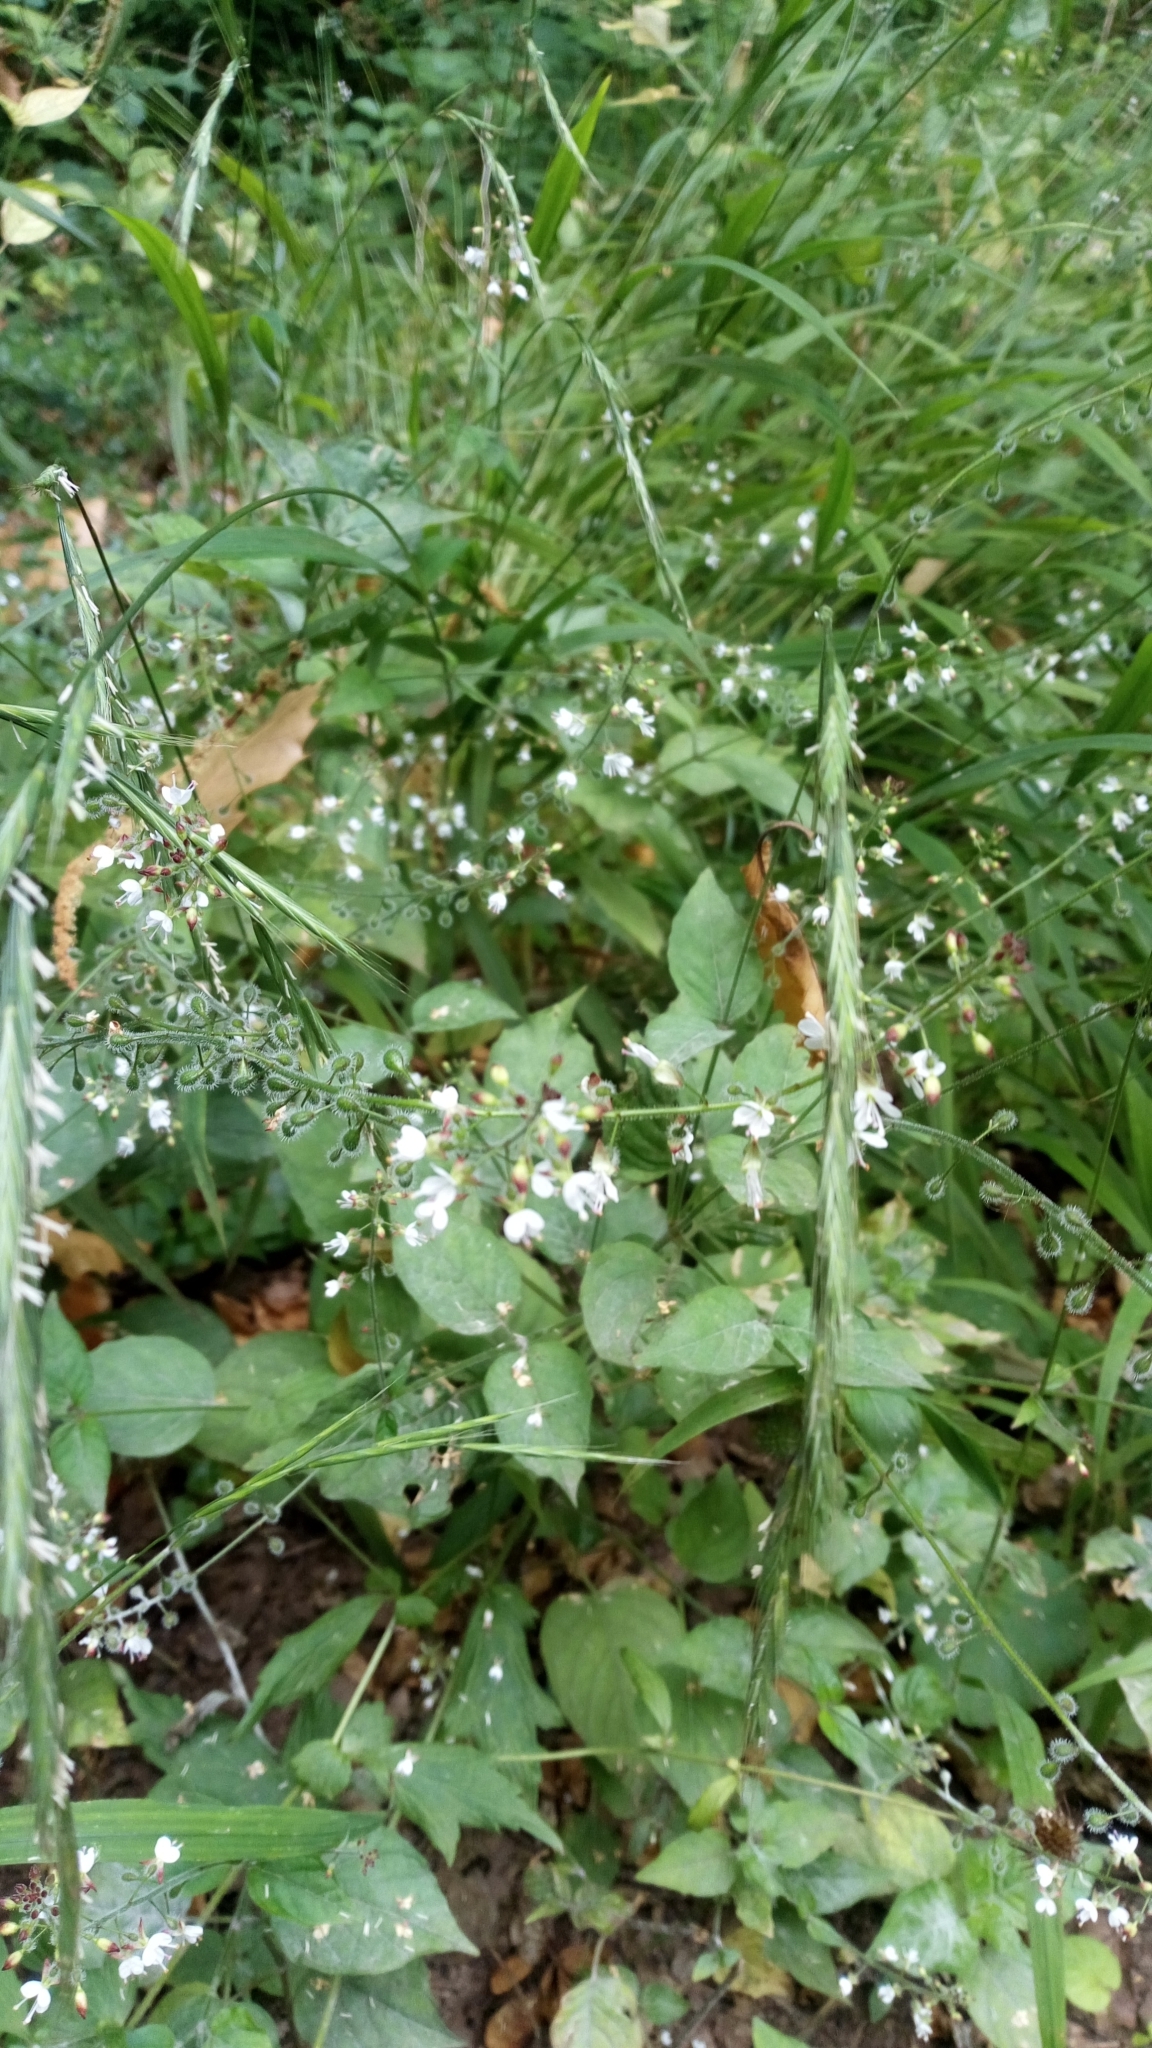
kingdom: Plantae
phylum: Tracheophyta
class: Magnoliopsida
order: Myrtales
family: Onagraceae
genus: Circaea
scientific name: Circaea lutetiana
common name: Enchanter's-nightshade
